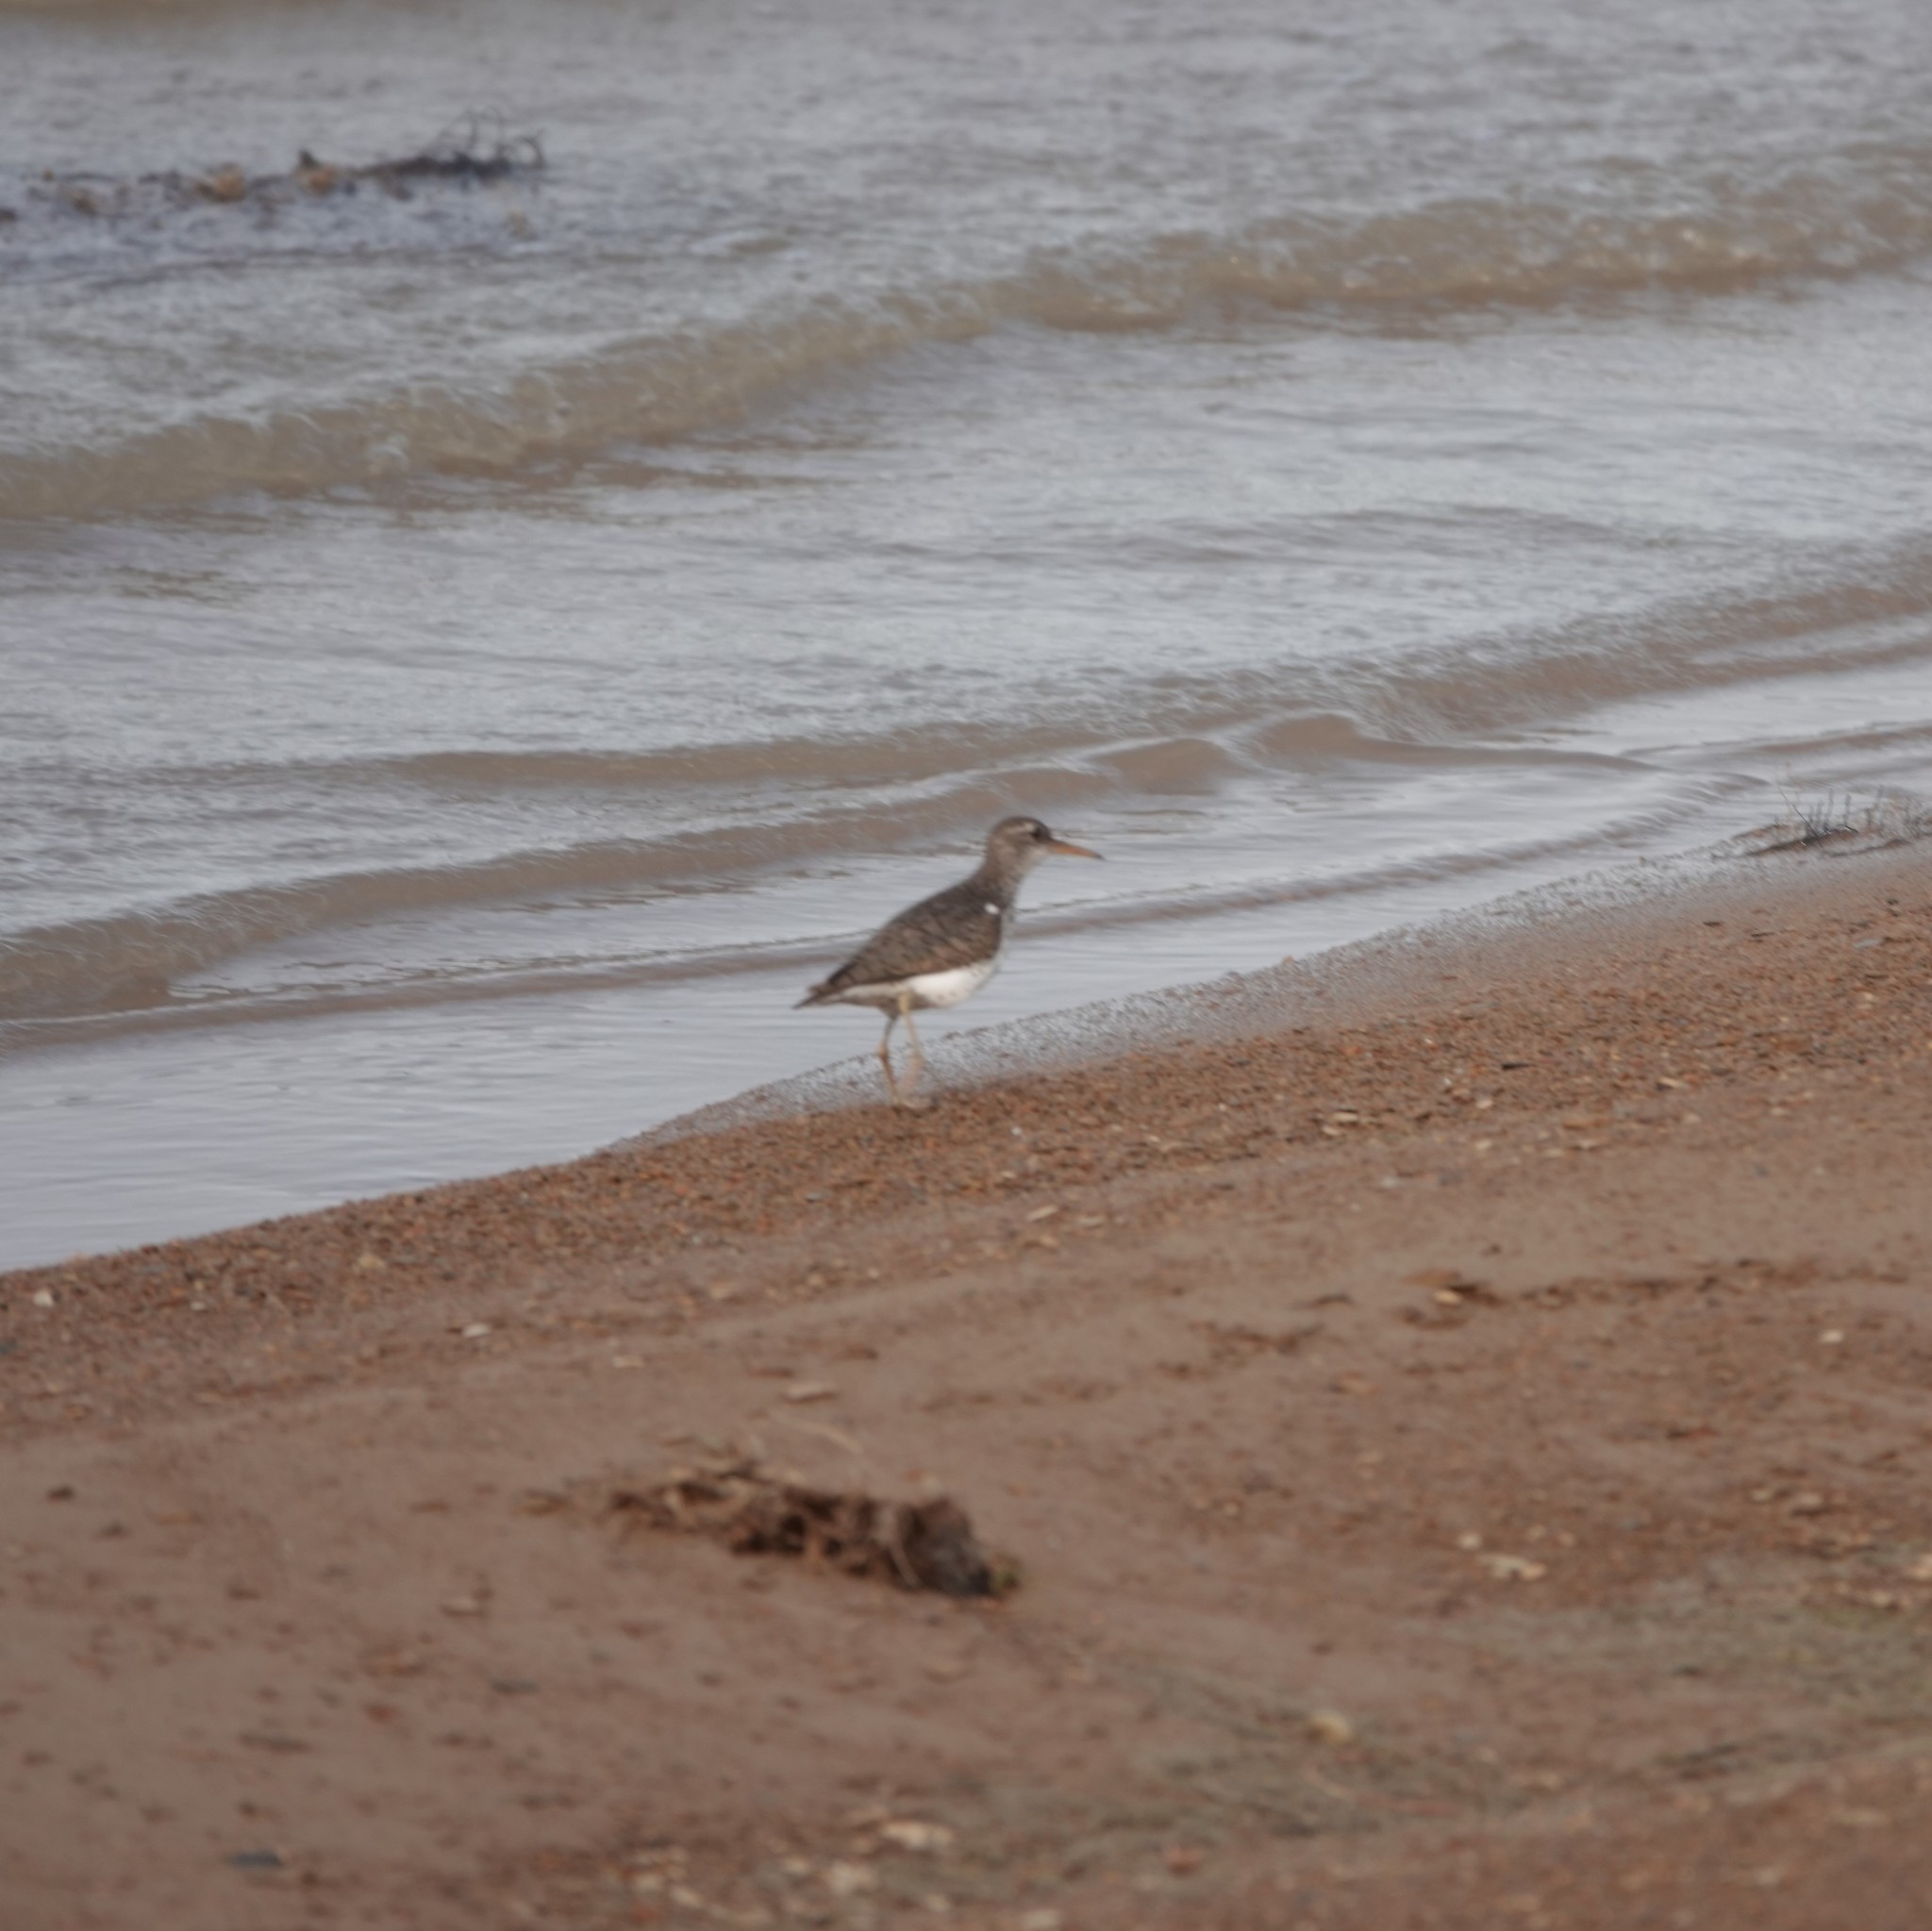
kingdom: Animalia
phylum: Chordata
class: Aves
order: Charadriiformes
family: Scolopacidae
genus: Actitis
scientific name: Actitis macularius
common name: Spotted sandpiper
